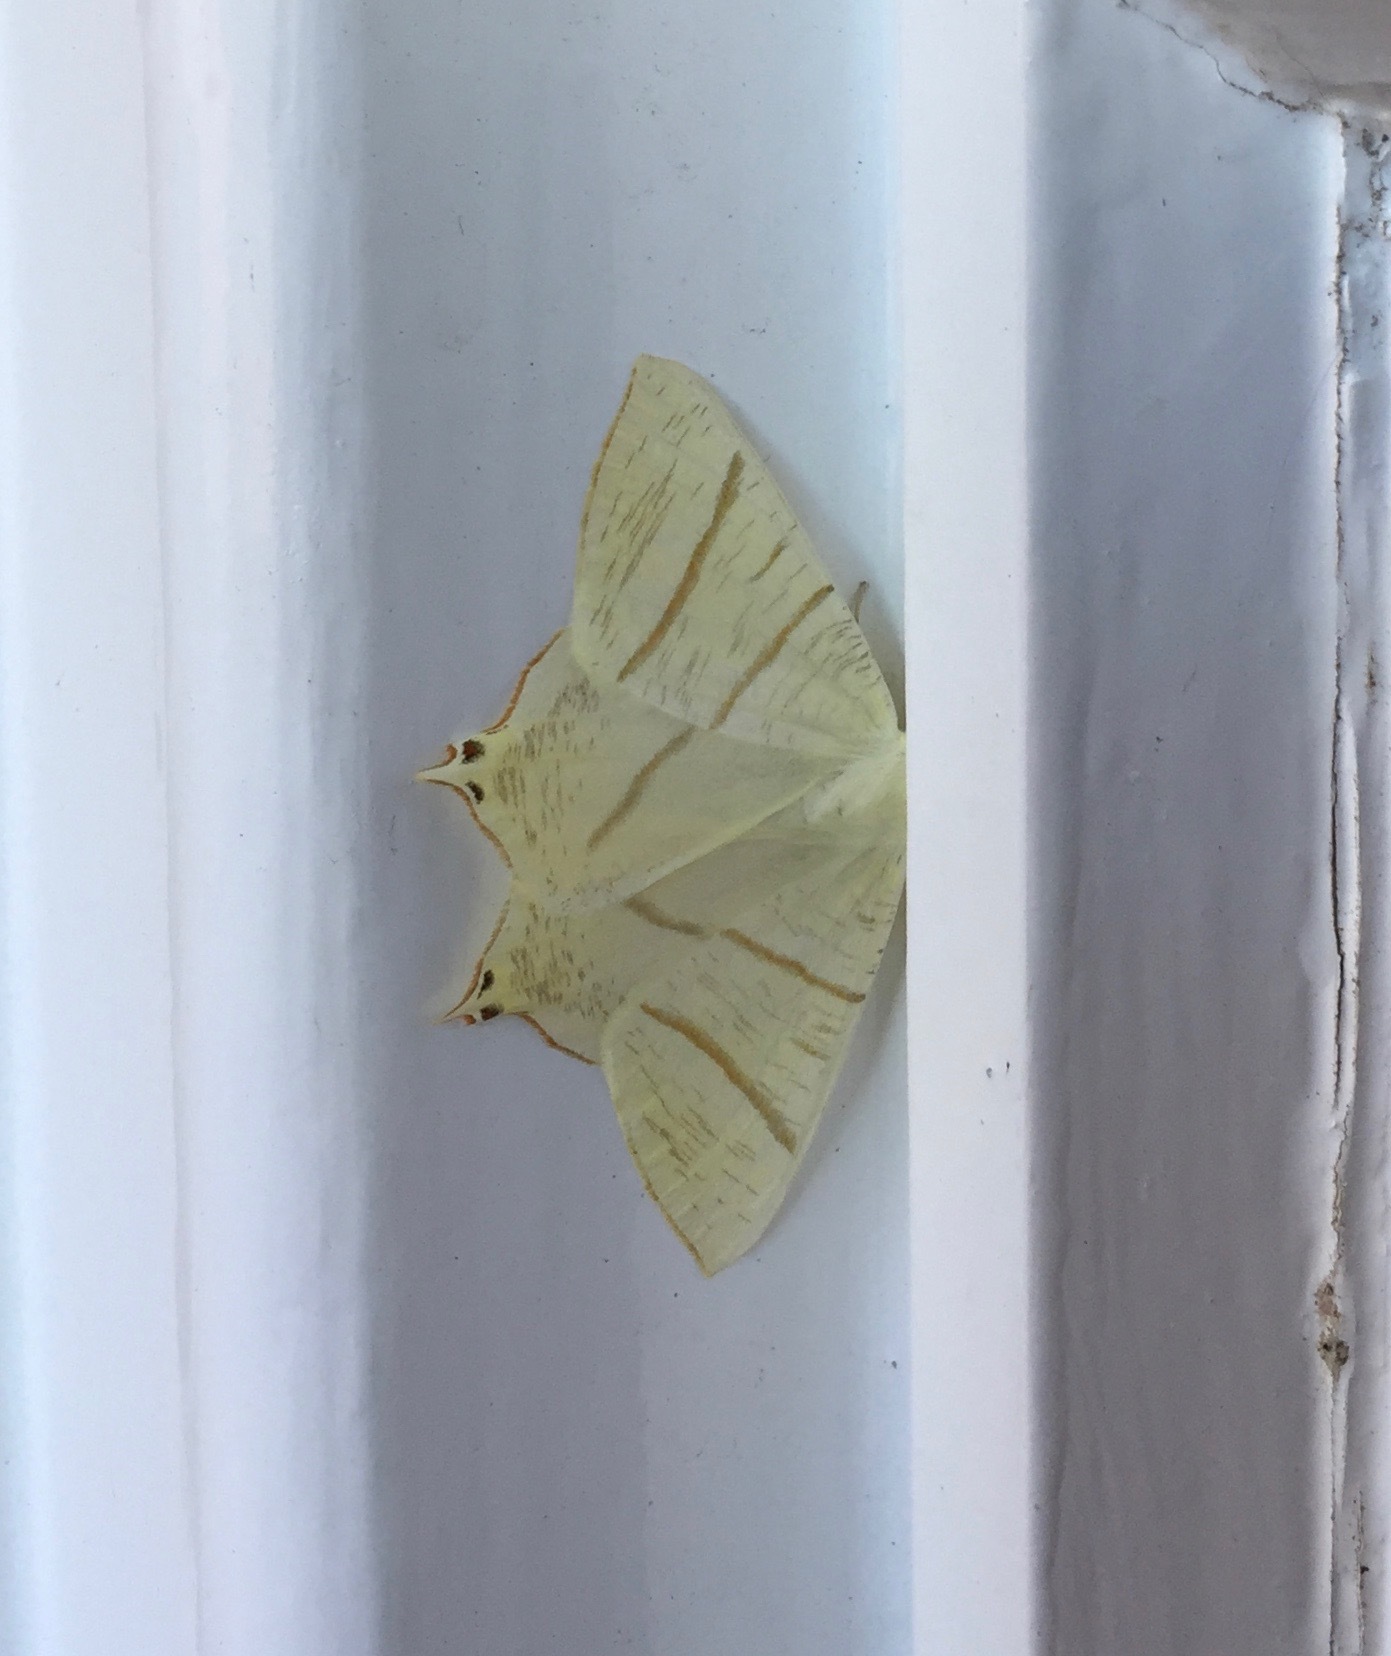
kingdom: Animalia
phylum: Arthropoda
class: Insecta
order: Lepidoptera
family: Geometridae
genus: Ourapteryx
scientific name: Ourapteryx sambucaria
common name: Swallow-tailed moth
